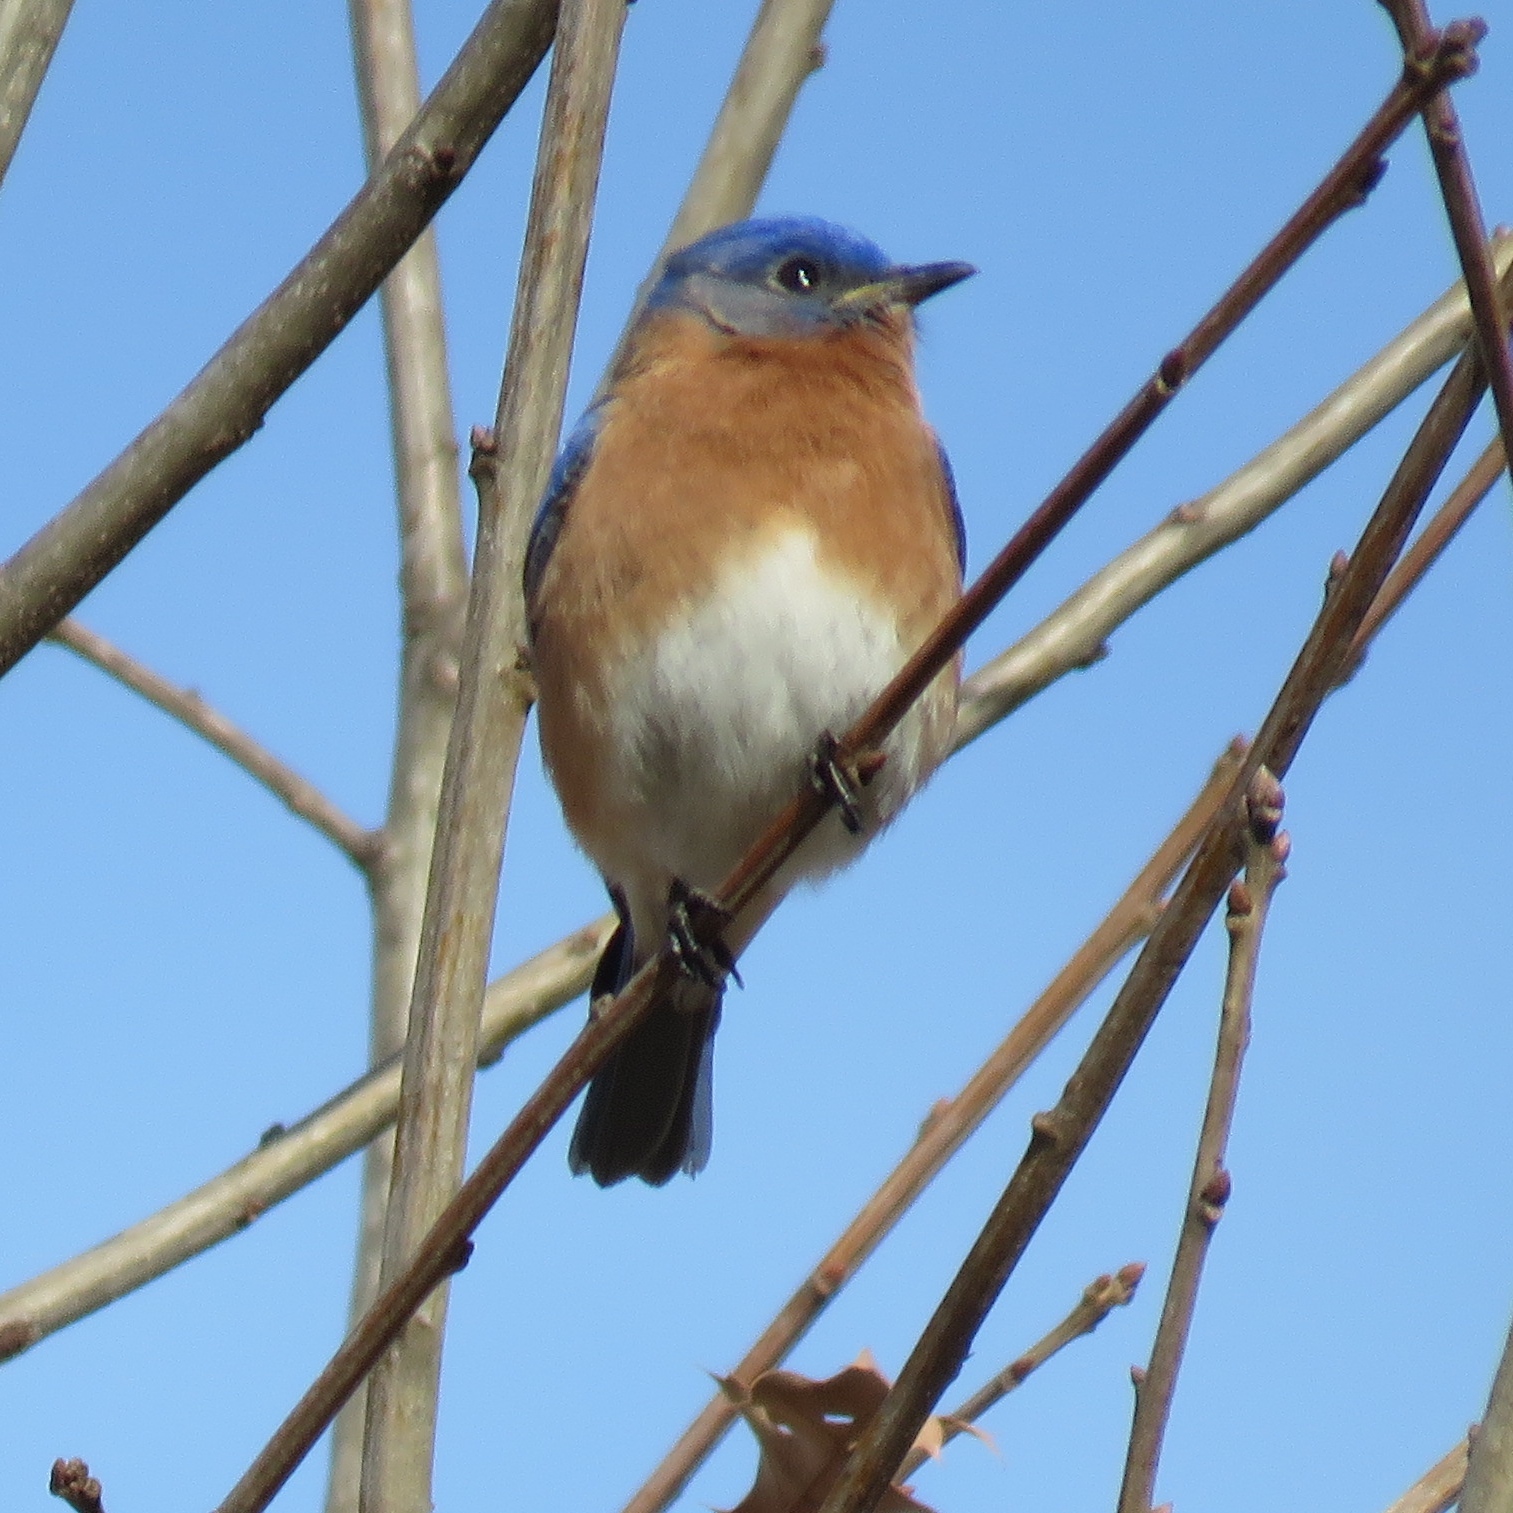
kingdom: Animalia
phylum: Chordata
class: Aves
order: Passeriformes
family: Turdidae
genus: Sialia
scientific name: Sialia sialis
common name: Eastern bluebird
